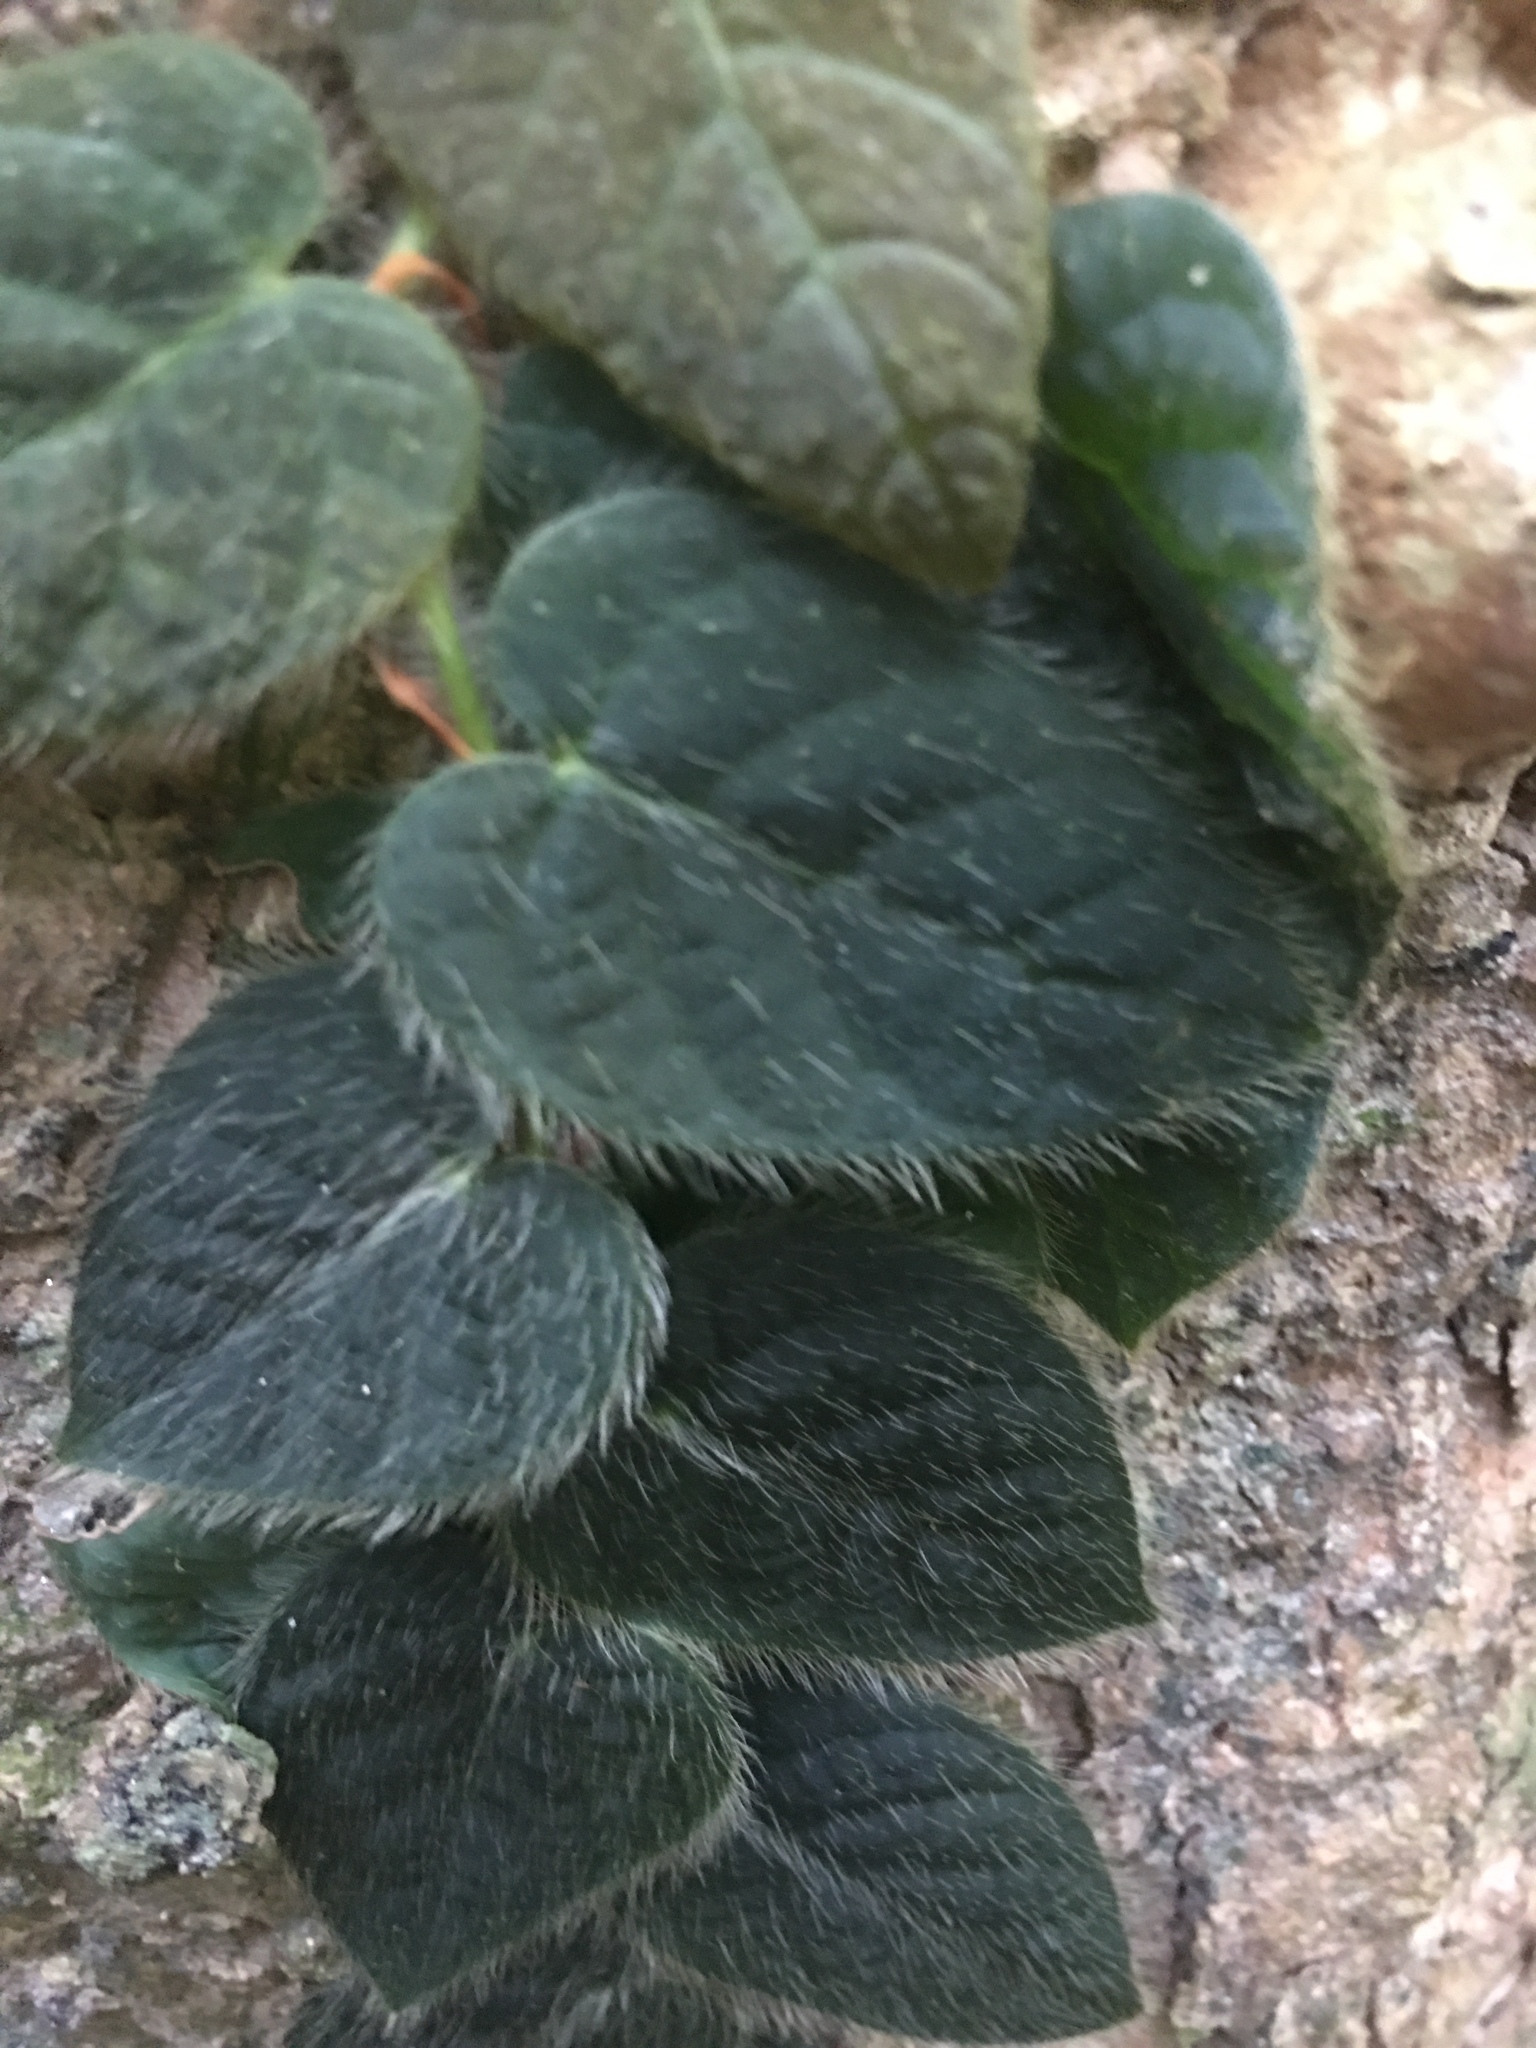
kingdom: Plantae
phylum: Tracheophyta
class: Magnoliopsida
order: Rosales
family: Moraceae
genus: Ficus
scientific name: Ficus villosa
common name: Villous fig
